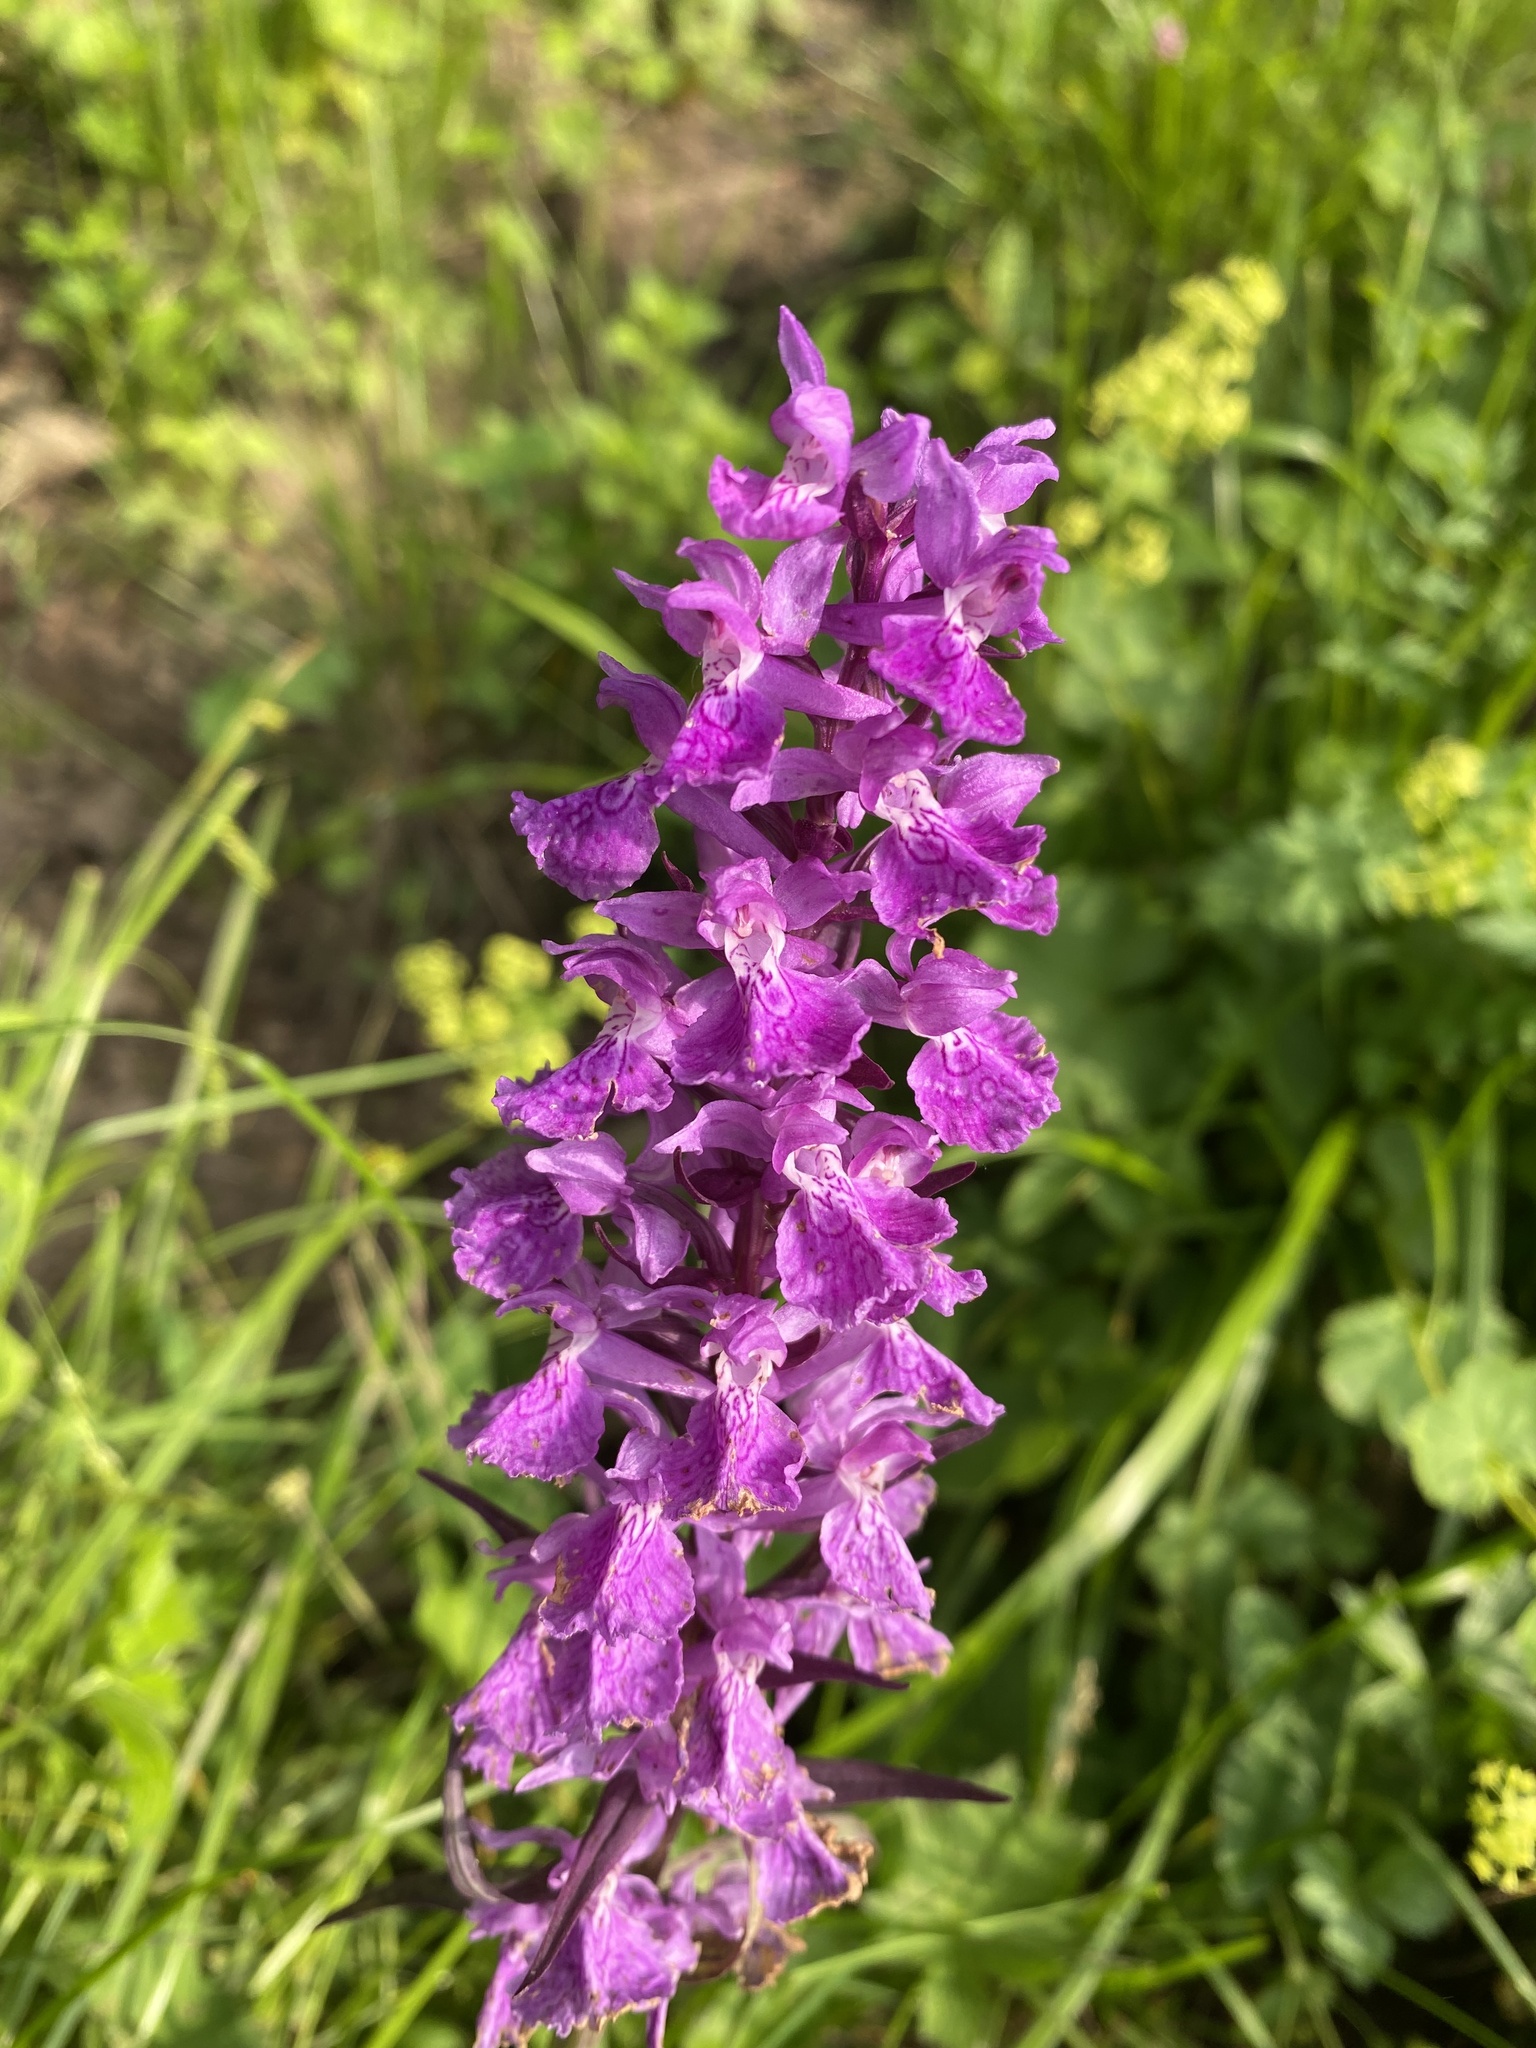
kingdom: Plantae
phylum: Tracheophyta
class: Liliopsida
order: Asparagales
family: Orchidaceae
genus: Dactylorhiza
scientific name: Dactylorhiza euxina
